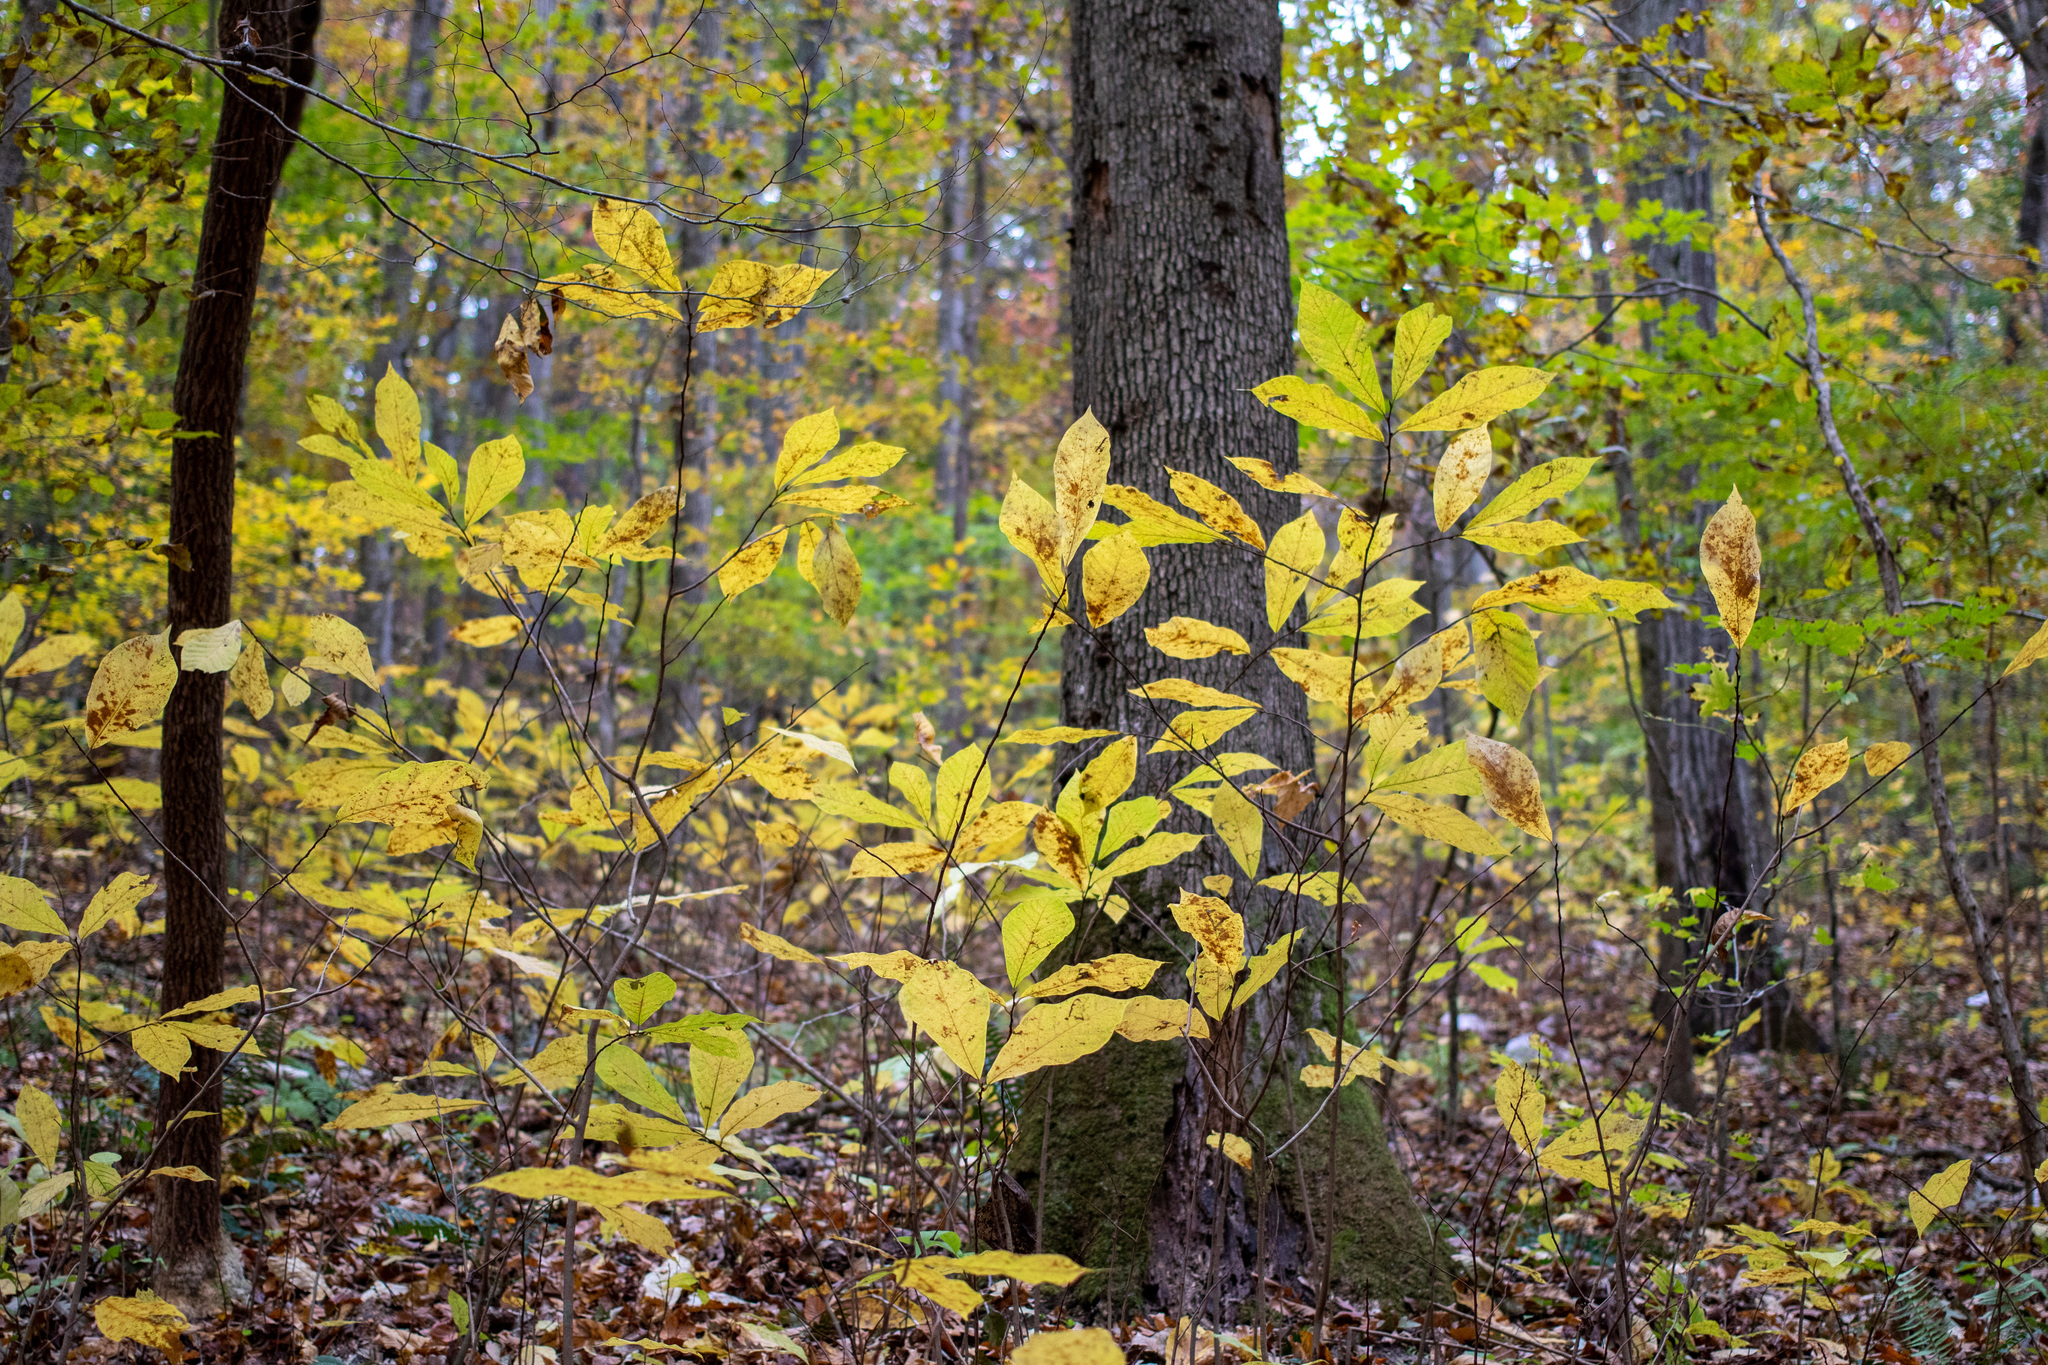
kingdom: Plantae
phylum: Tracheophyta
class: Magnoliopsida
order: Magnoliales
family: Annonaceae
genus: Asimina
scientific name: Asimina triloba
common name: Dog-banana
